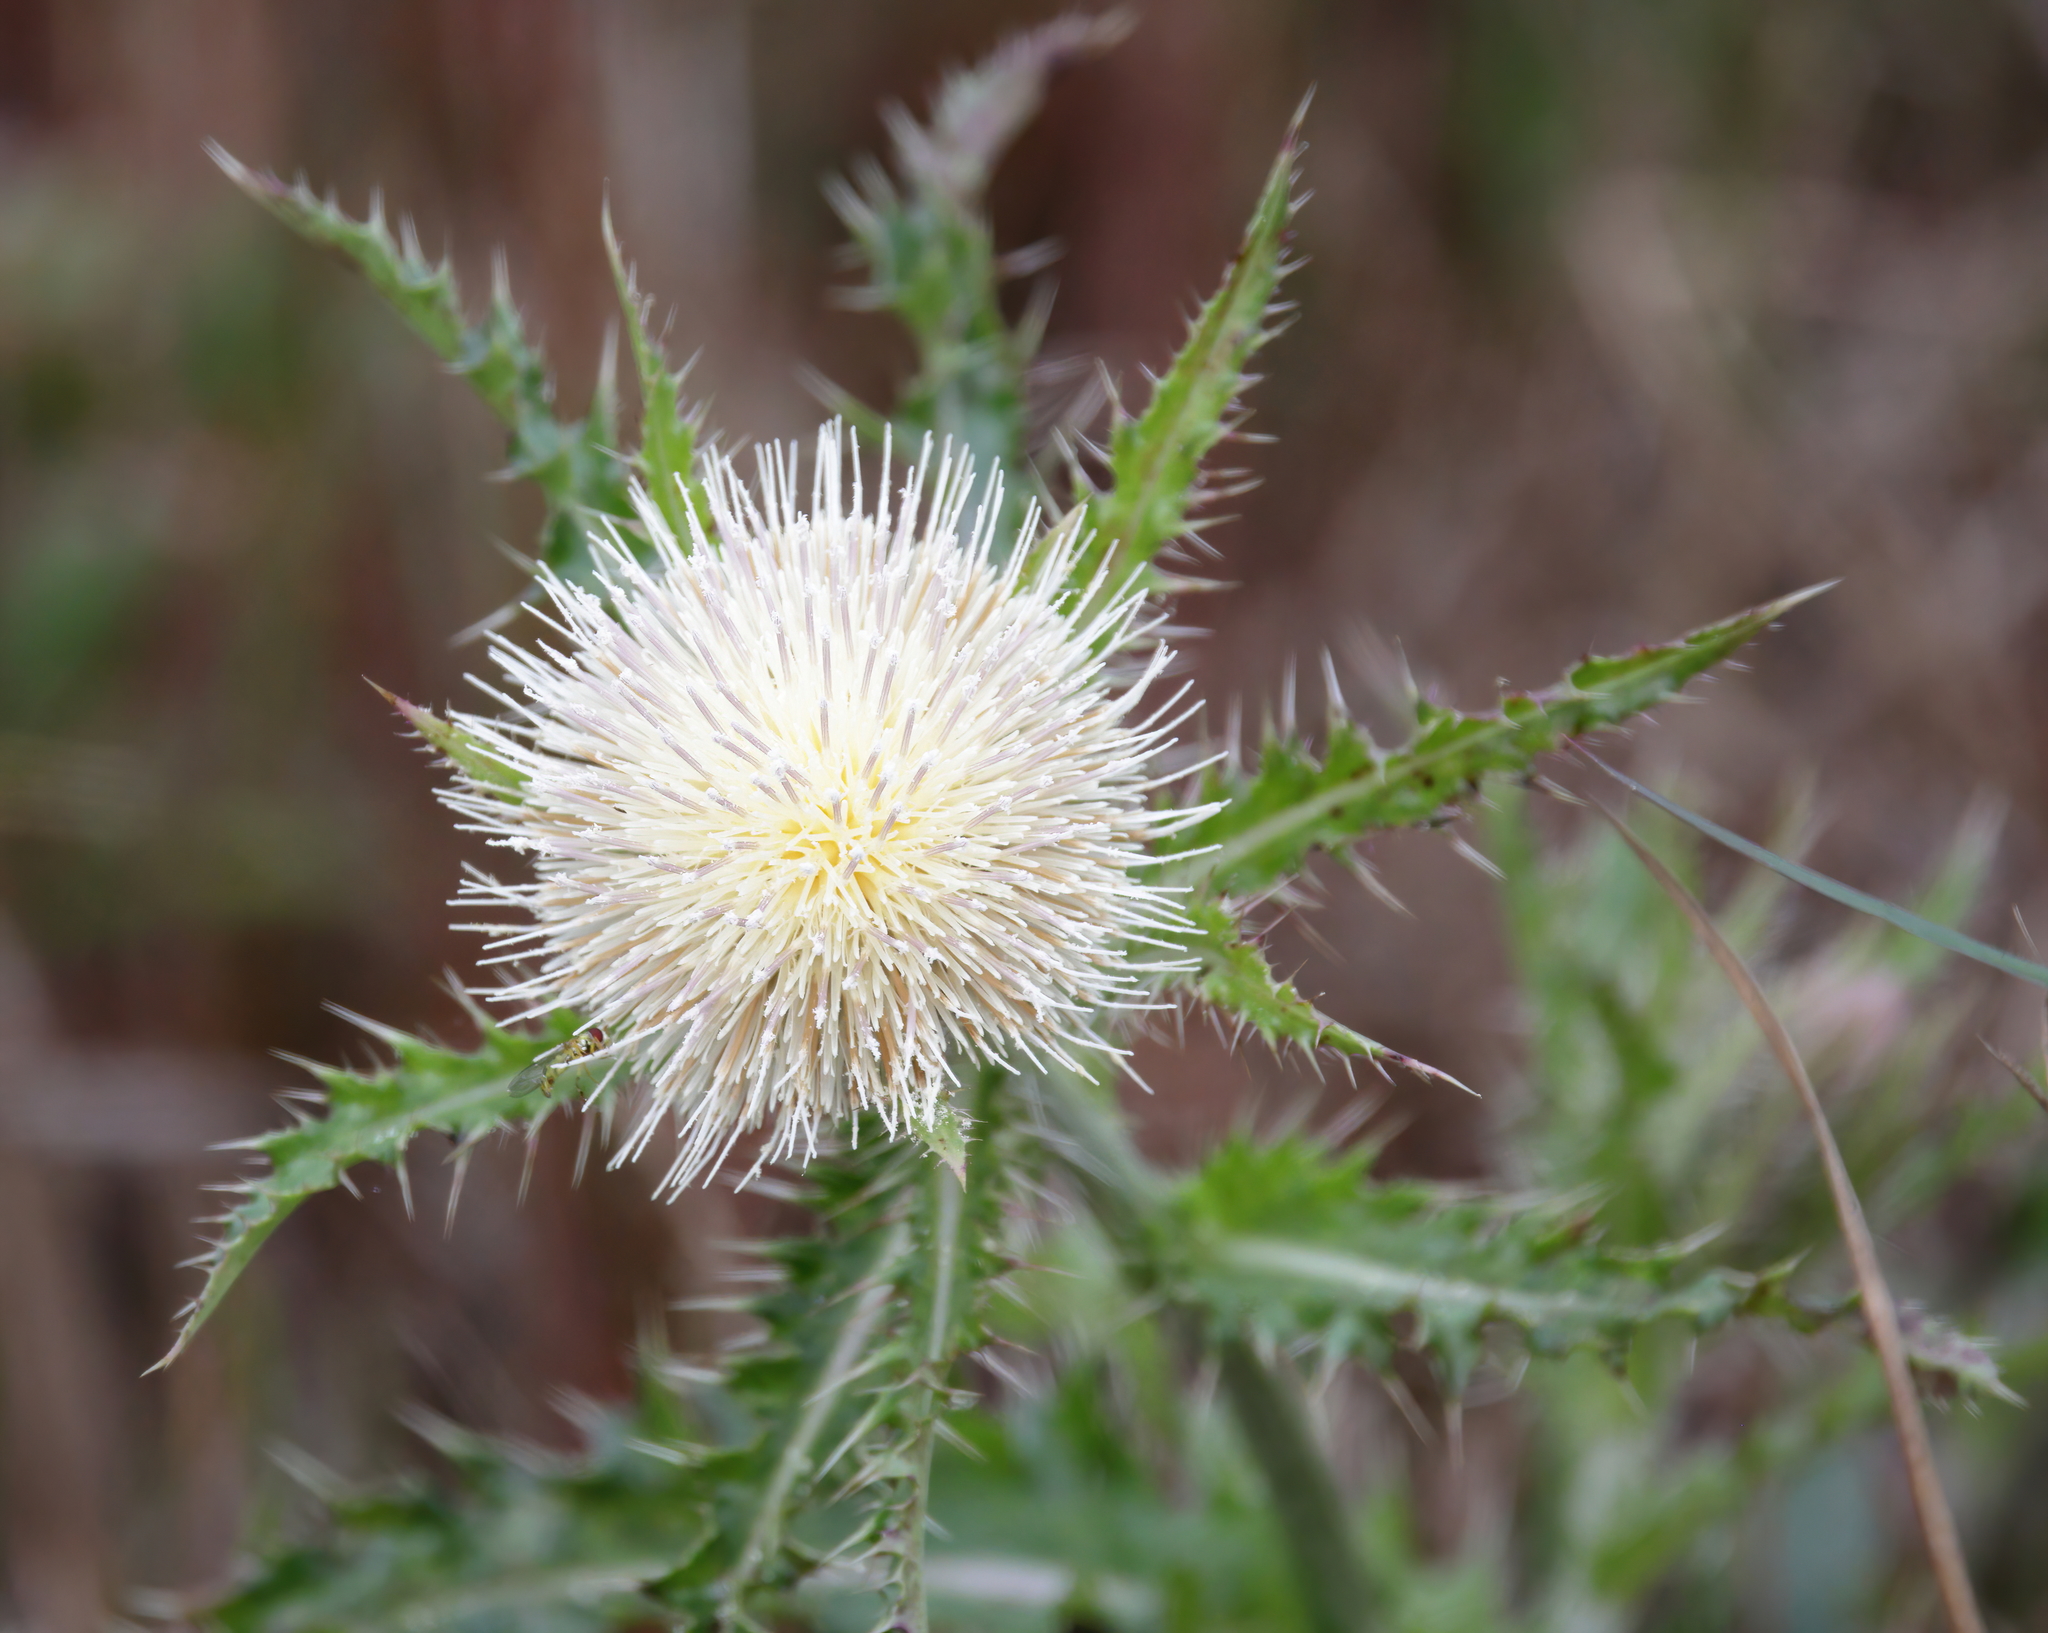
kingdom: Plantae
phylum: Tracheophyta
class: Magnoliopsida
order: Asterales
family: Asteraceae
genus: Cirsium
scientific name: Cirsium horridulum
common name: Bristly thistle
